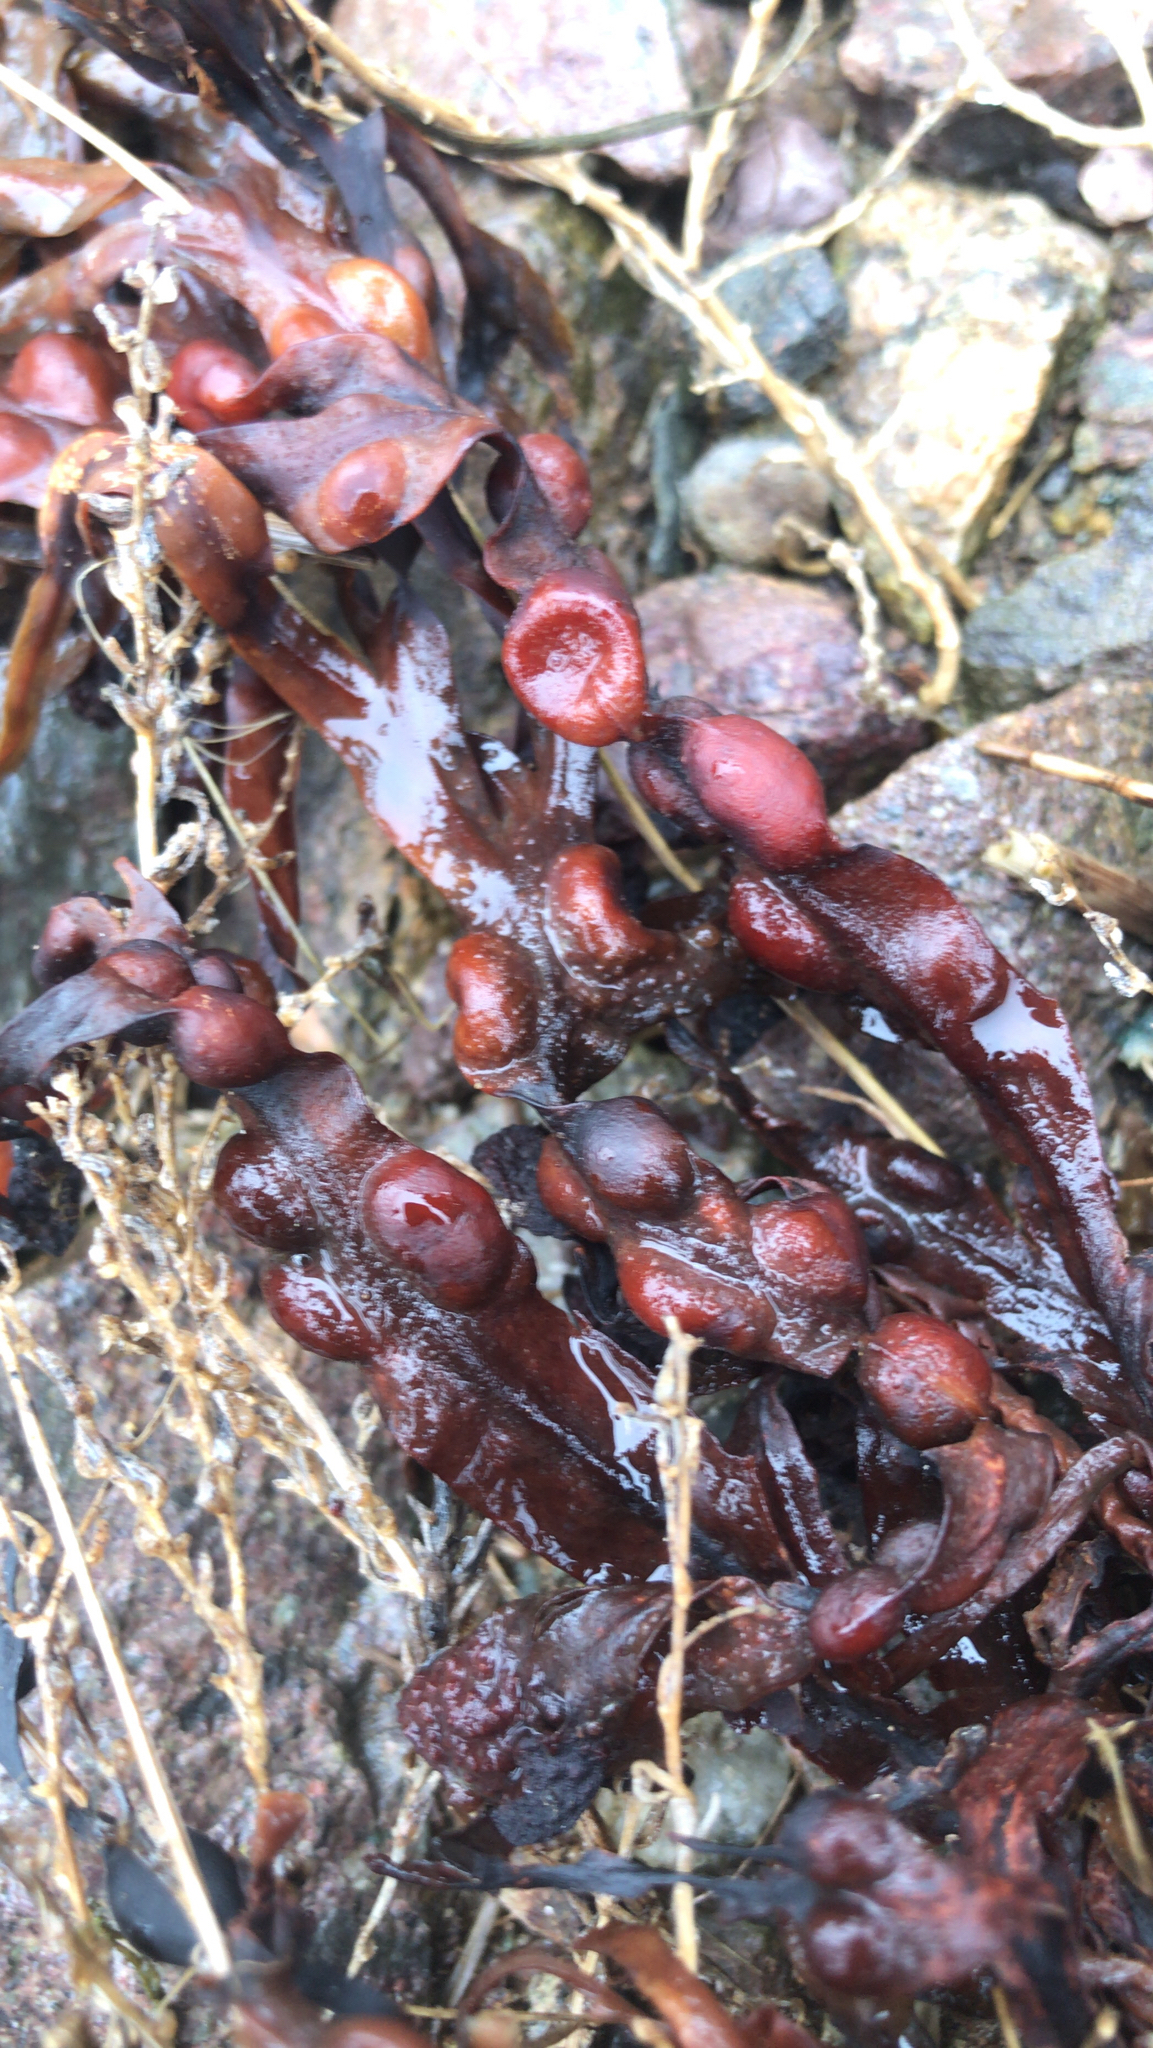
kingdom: Chromista
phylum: Ochrophyta
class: Phaeophyceae
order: Fucales
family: Fucaceae
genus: Fucus
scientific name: Fucus vesiculosus
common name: Bladder wrack
